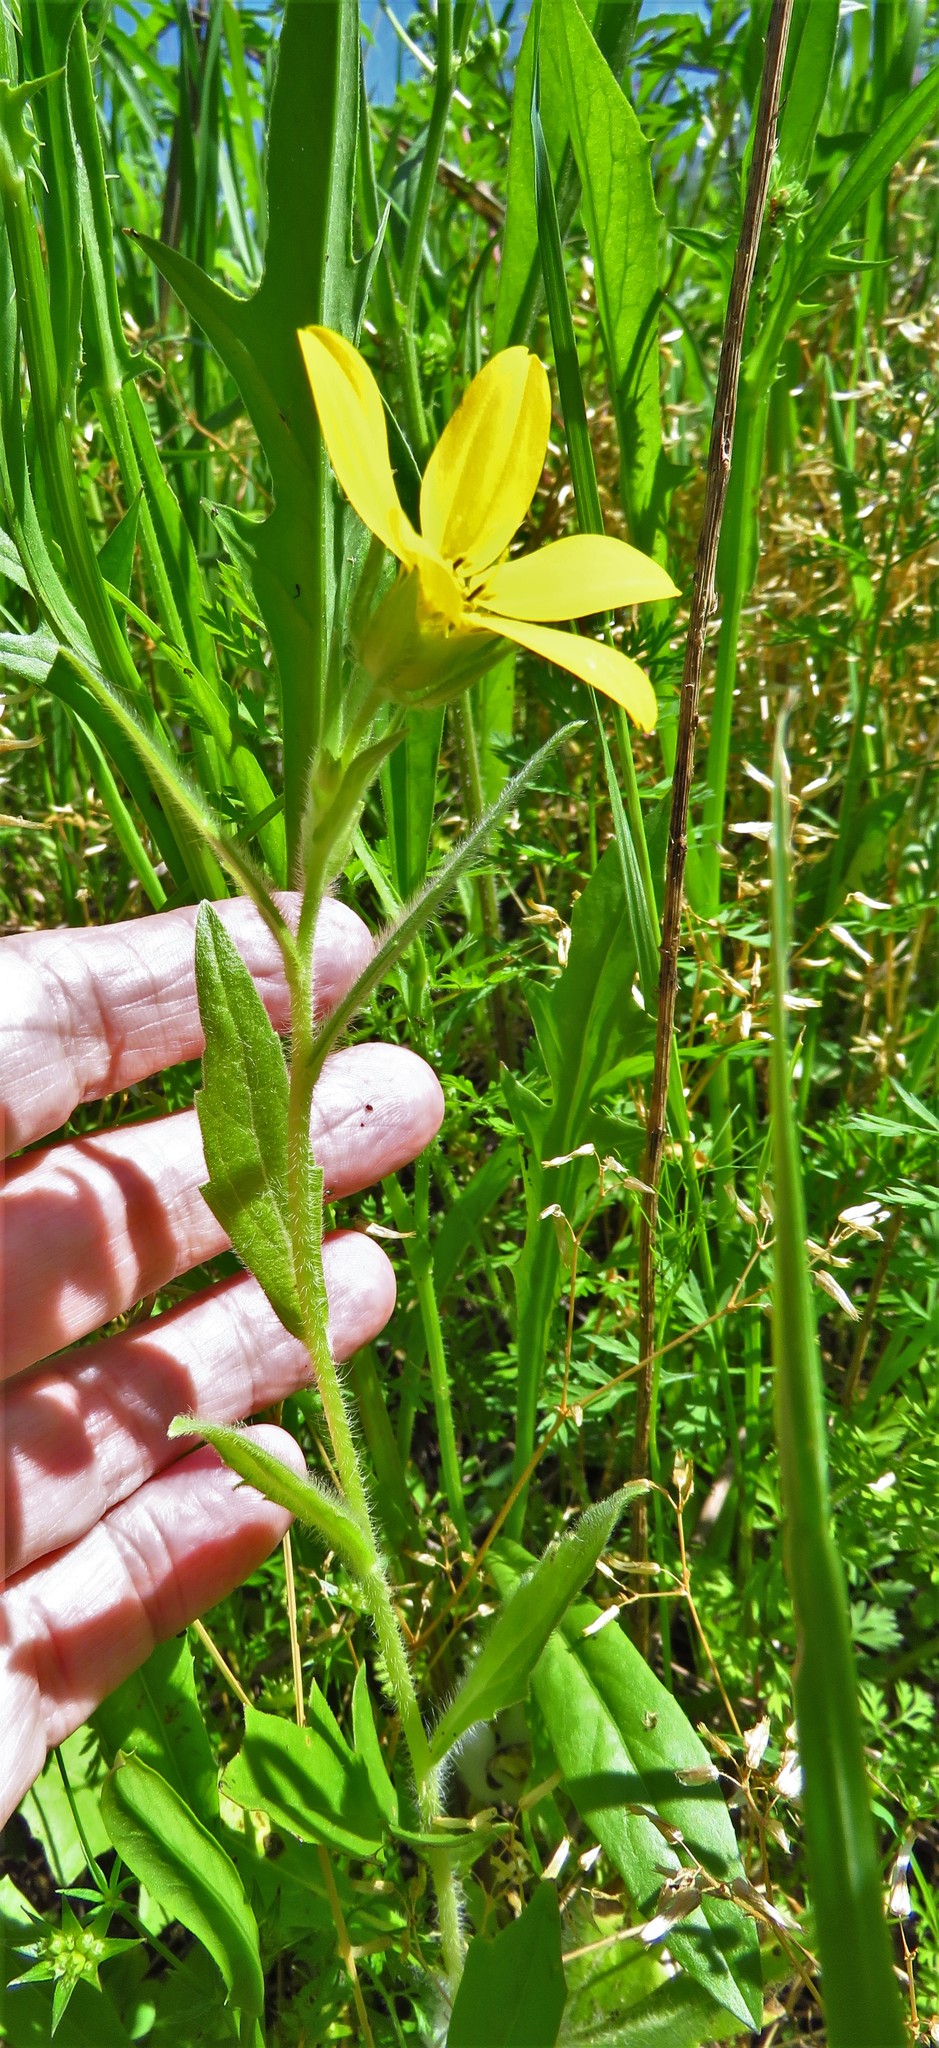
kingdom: Plantae
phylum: Tracheophyta
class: Magnoliopsida
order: Asterales
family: Asteraceae
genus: Lindheimera
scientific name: Lindheimera texana
